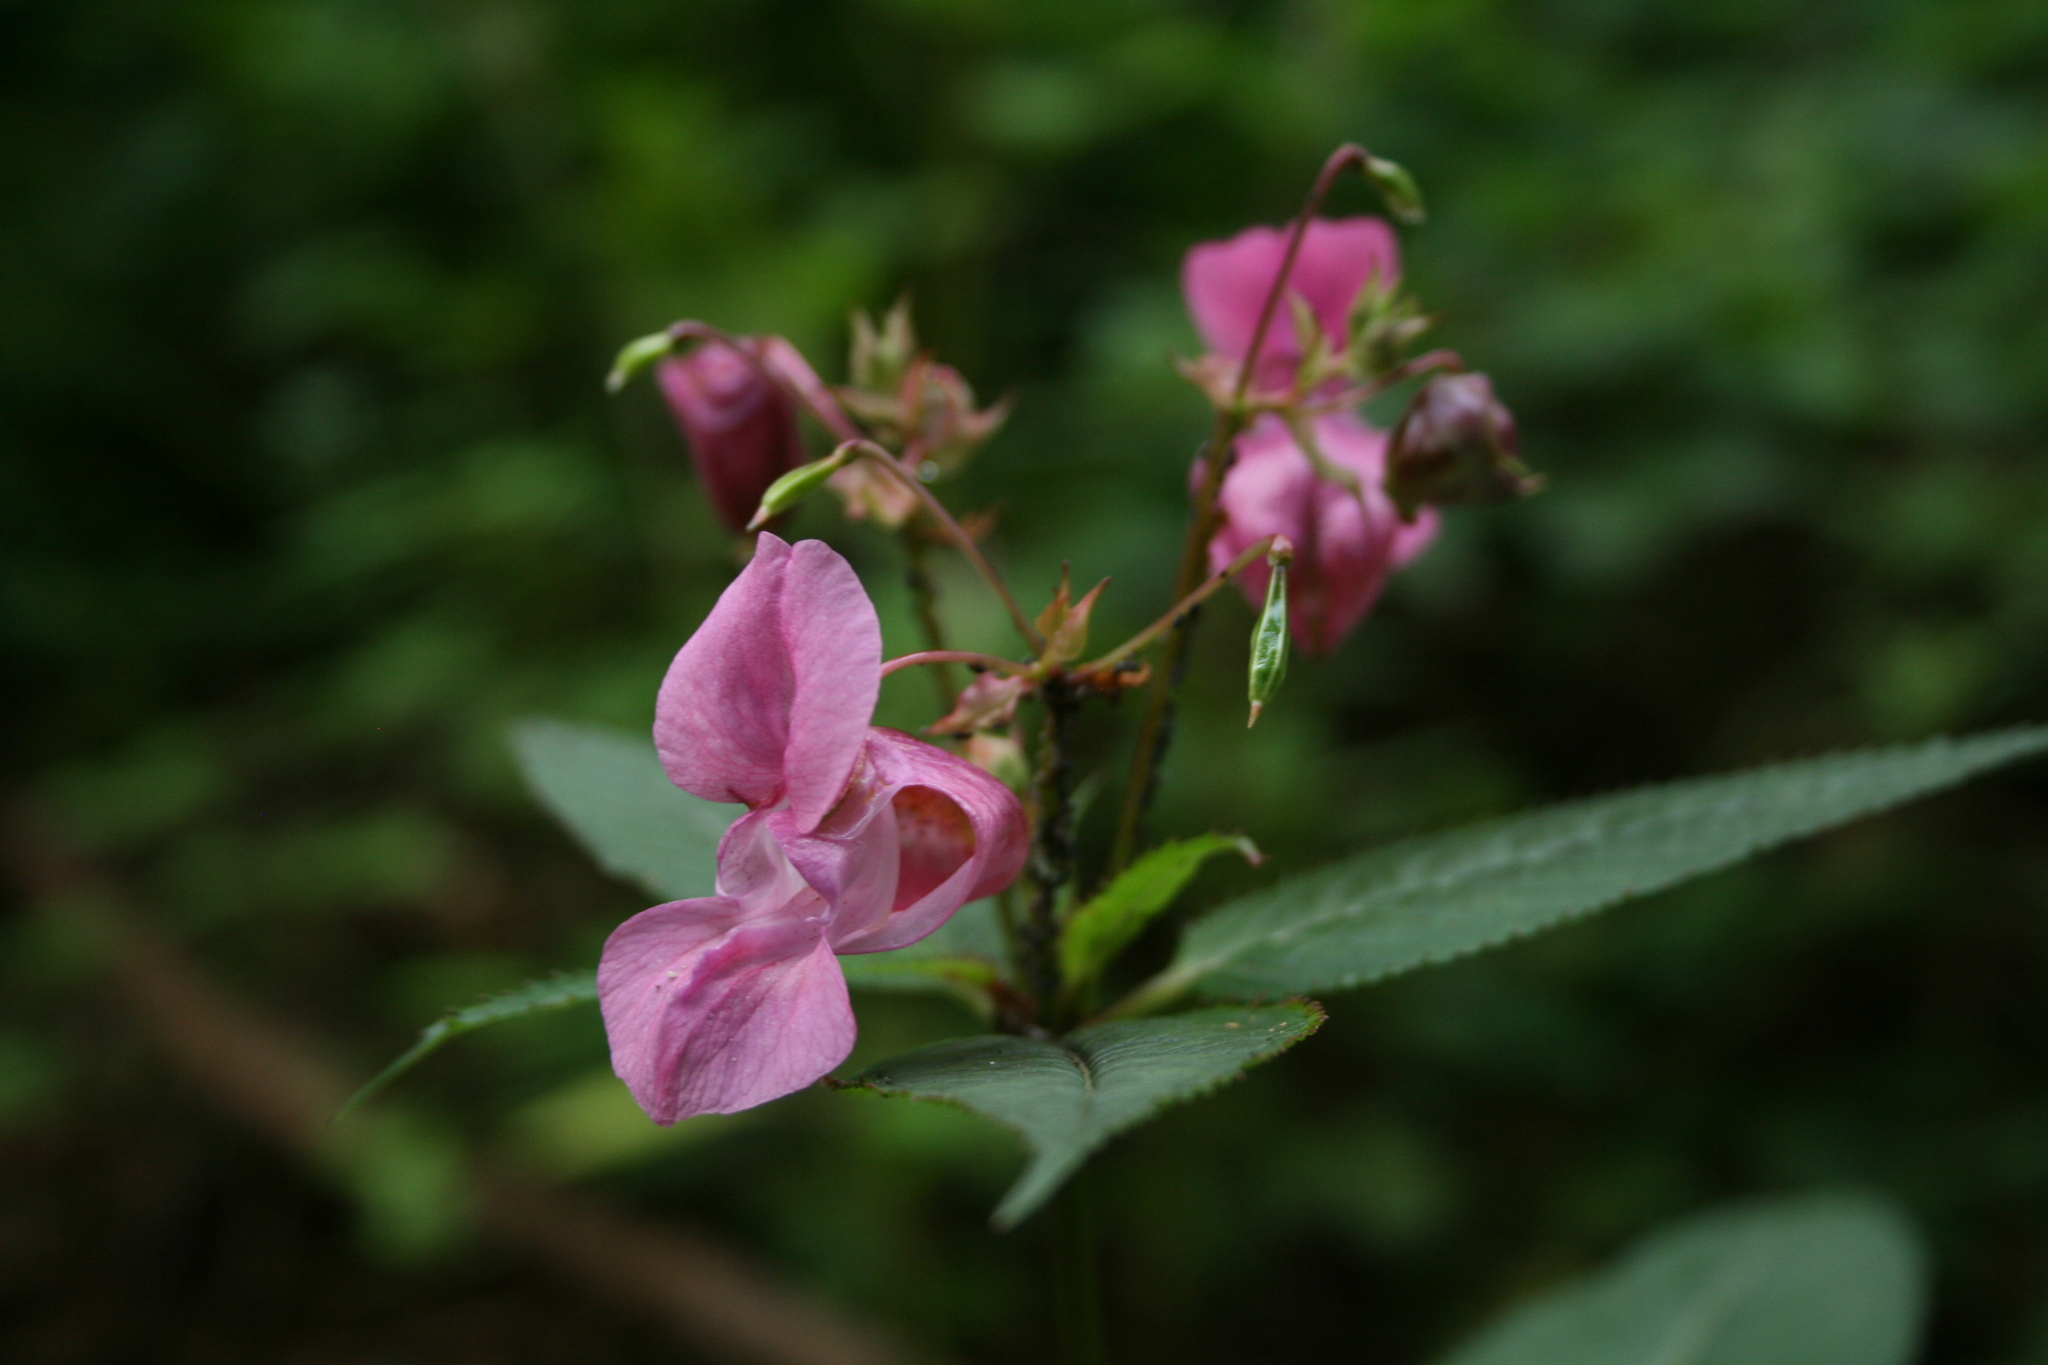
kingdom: Plantae
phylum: Tracheophyta
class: Magnoliopsida
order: Ericales
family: Balsaminaceae
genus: Impatiens
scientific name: Impatiens glandulifera
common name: Himalayan balsam
